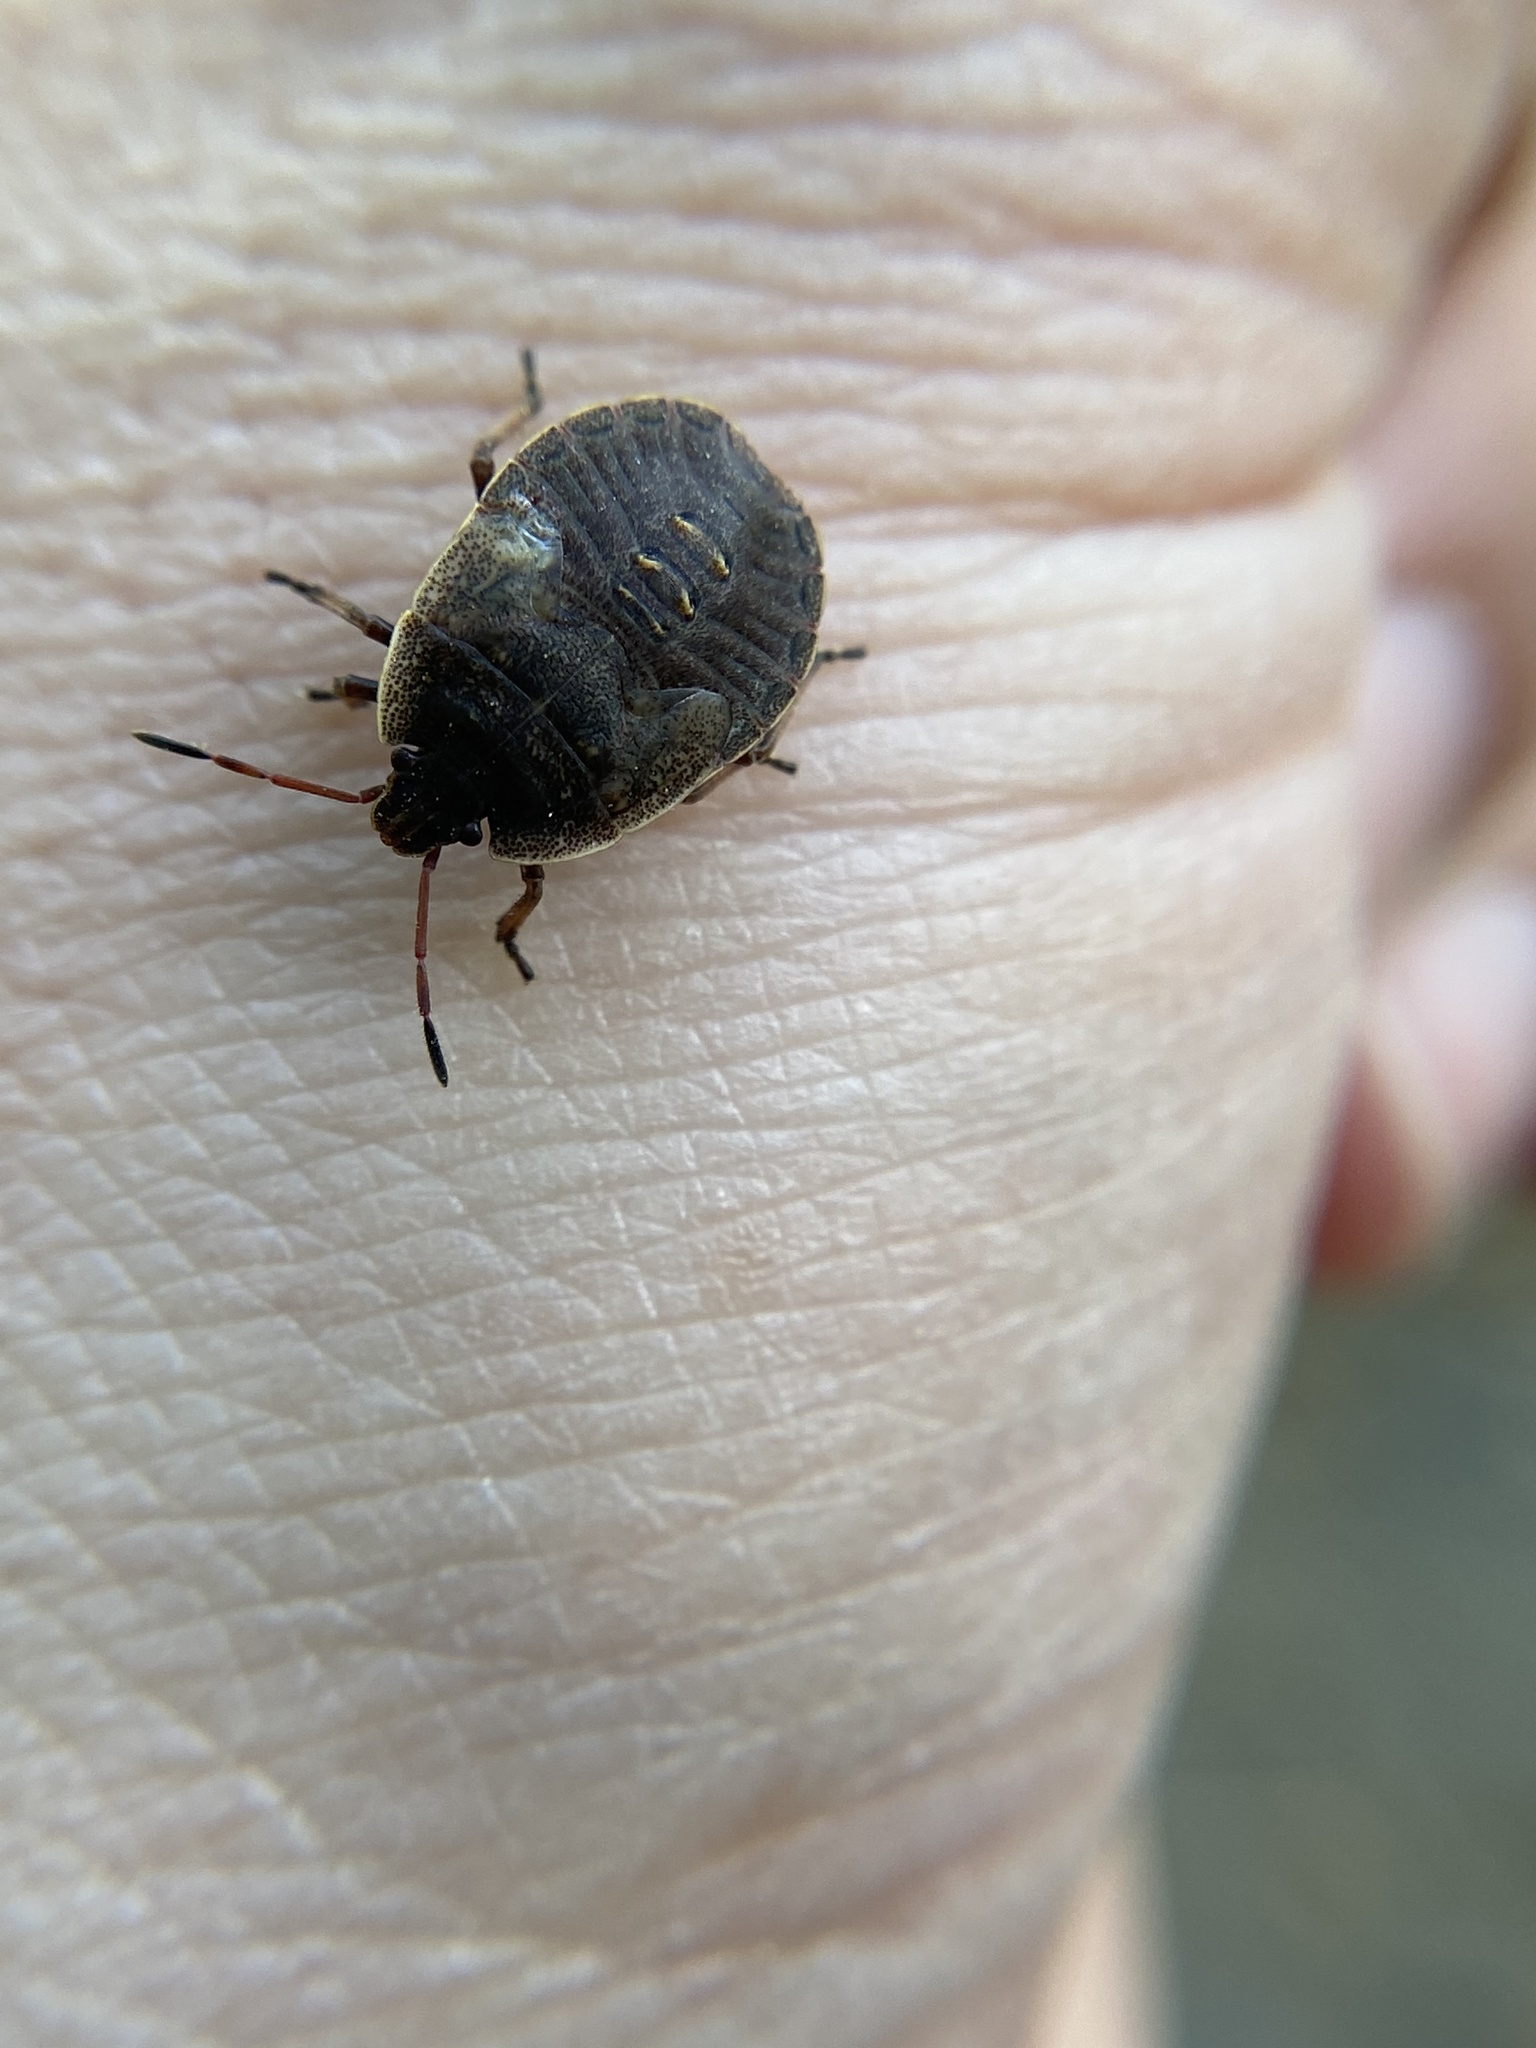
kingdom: Animalia
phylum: Arthropoda
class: Insecta
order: Hemiptera
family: Pentatomidae
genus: Menecles
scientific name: Menecles insertus
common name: Elf shoe stink bug
